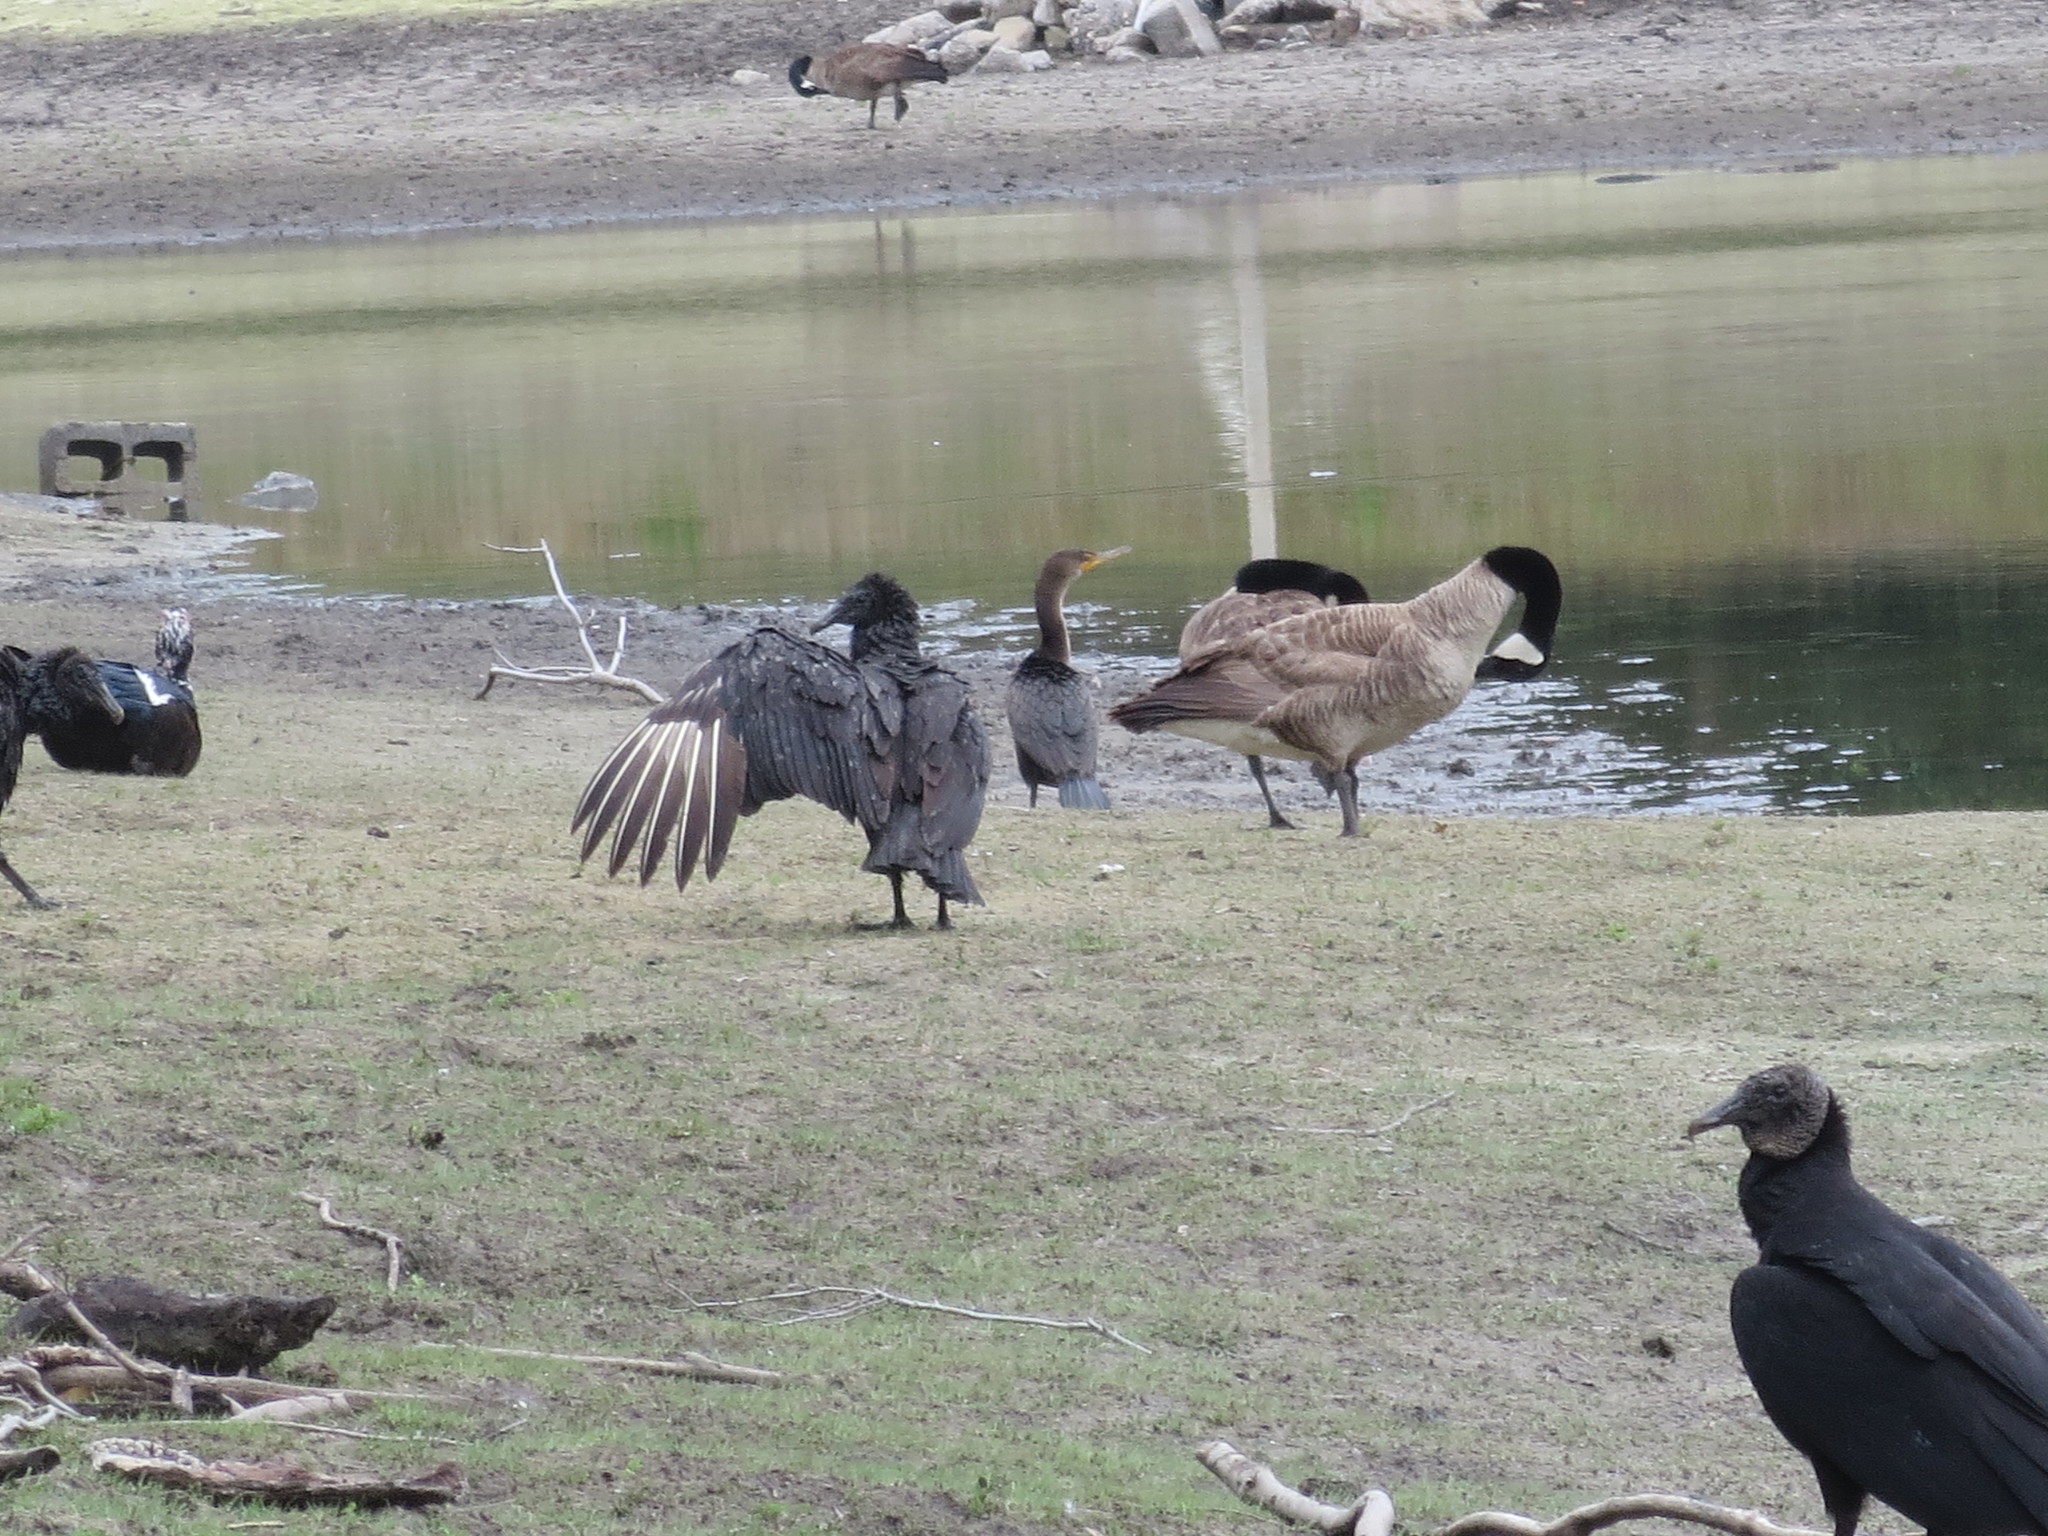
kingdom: Animalia
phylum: Chordata
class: Aves
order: Accipitriformes
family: Cathartidae
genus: Coragyps
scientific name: Coragyps atratus
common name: Black vulture
